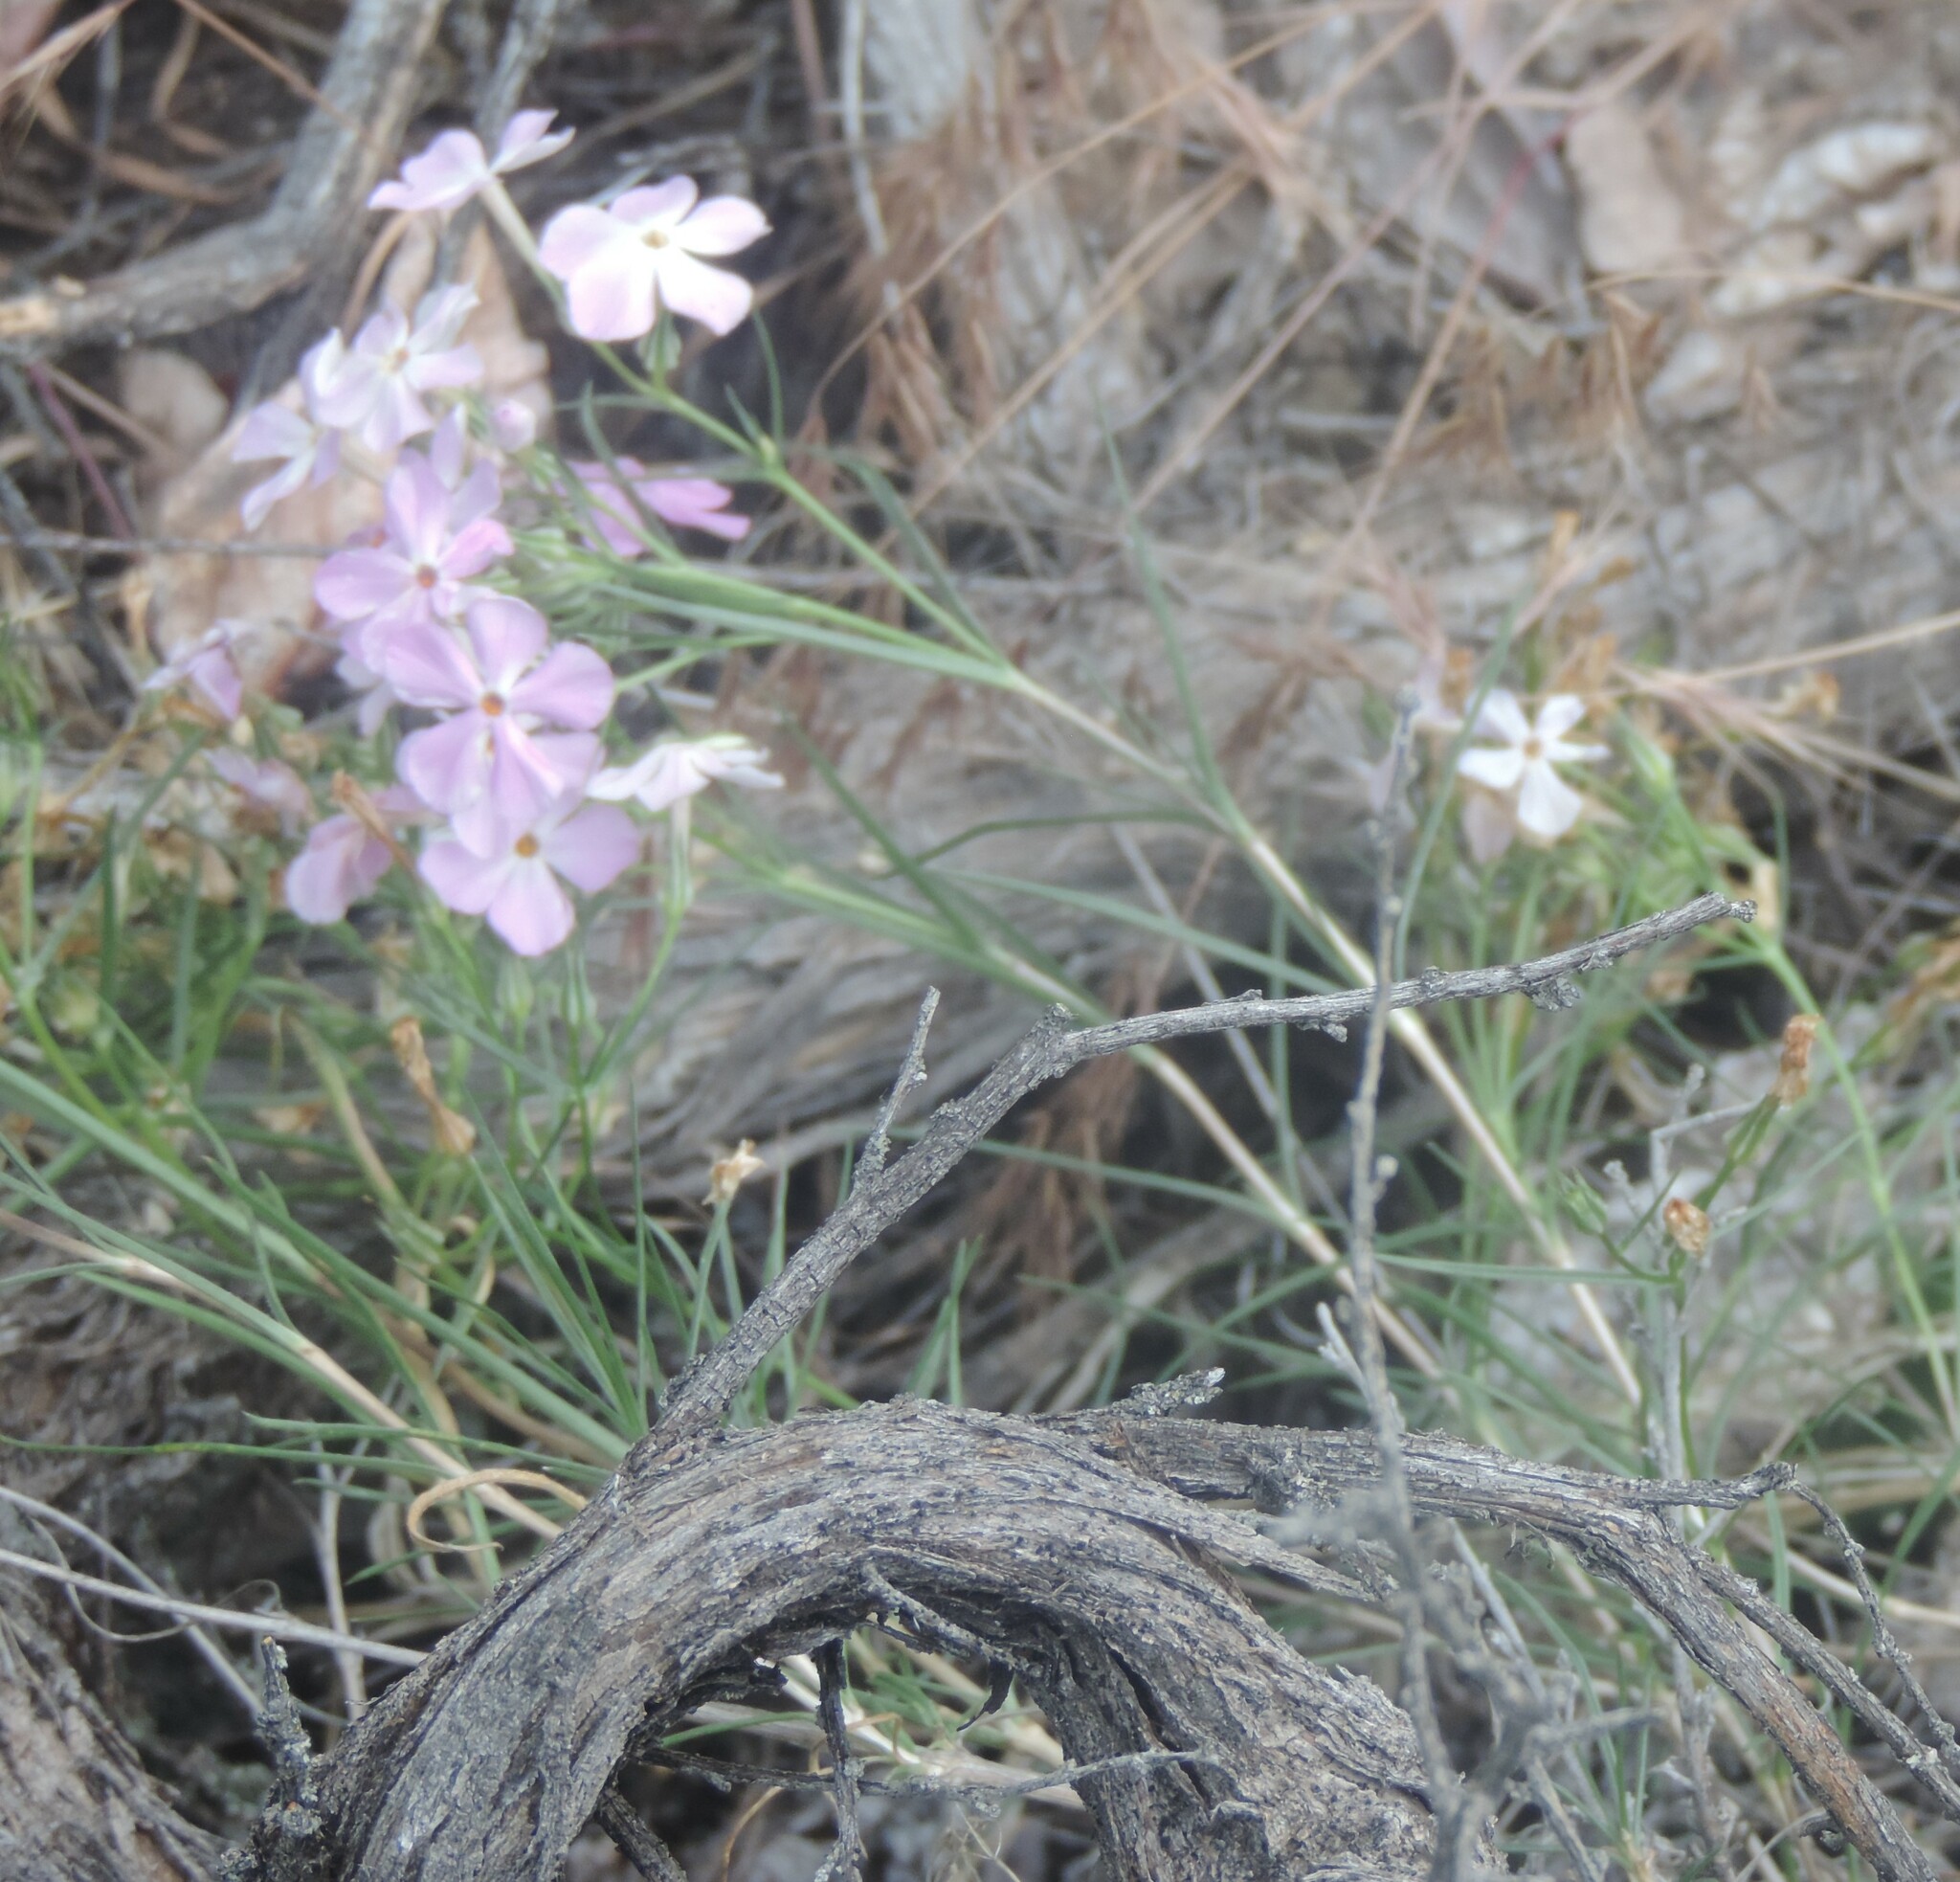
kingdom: Plantae
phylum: Tracheophyta
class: Magnoliopsida
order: Ericales
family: Polemoniaceae
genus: Phlox
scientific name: Phlox longifolia
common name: Longleaf phlox
